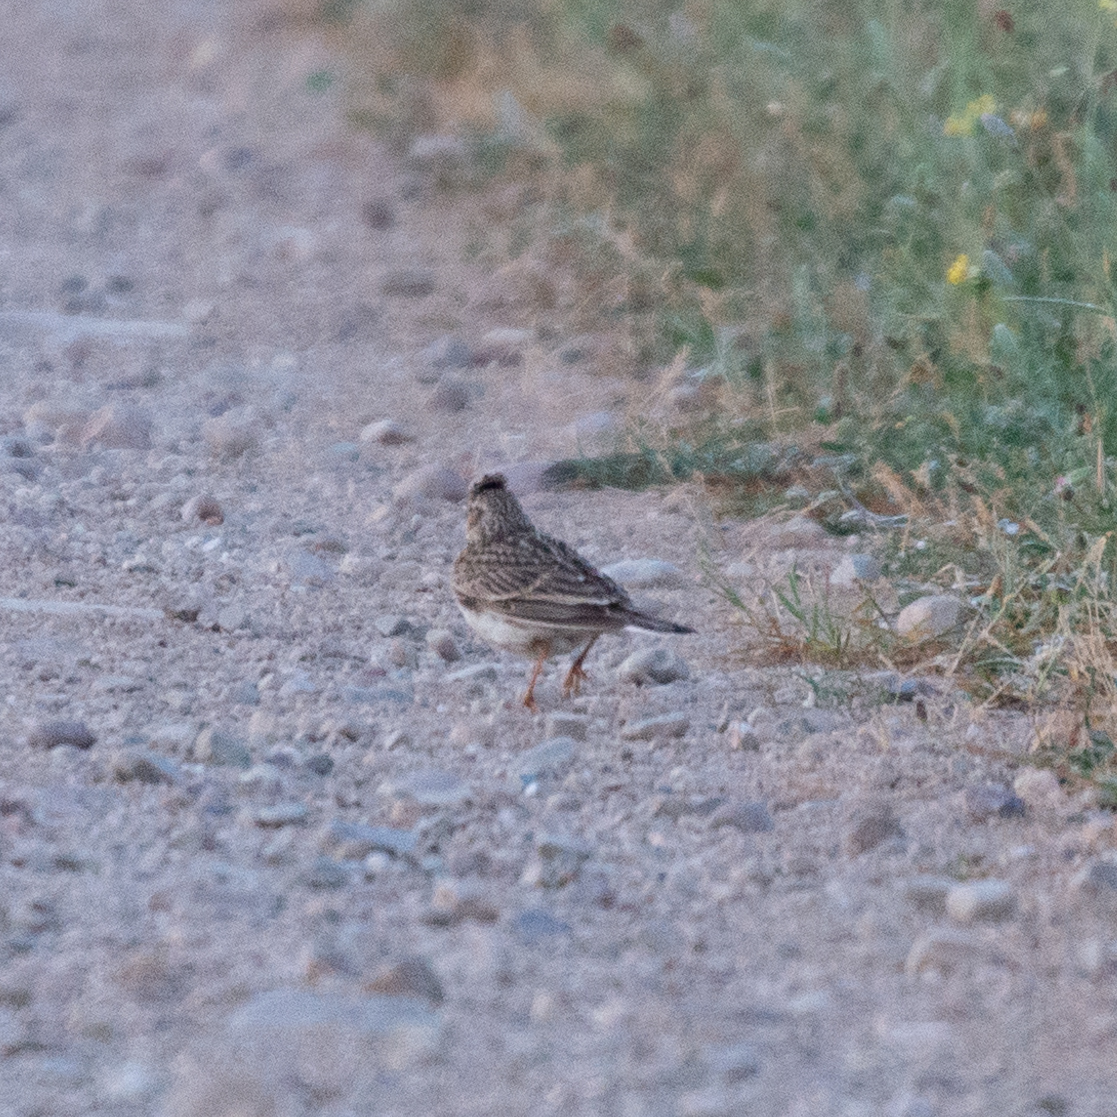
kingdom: Animalia
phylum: Chordata
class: Aves
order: Passeriformes
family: Alaudidae
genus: Alauda
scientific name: Alauda arvensis
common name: Eurasian skylark
